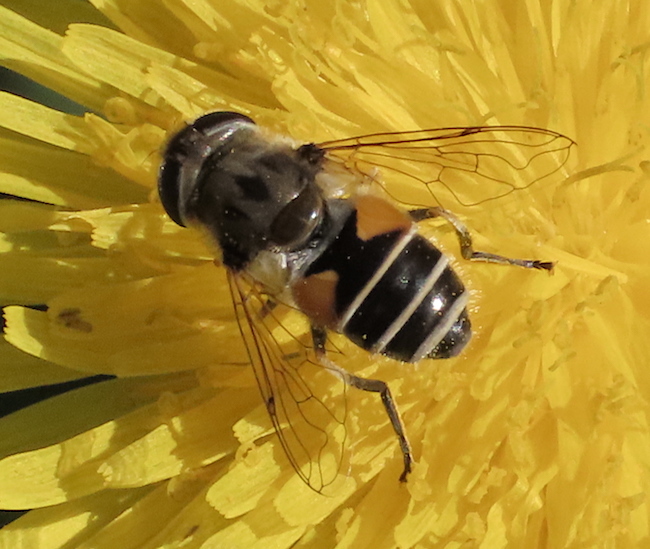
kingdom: Animalia
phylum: Arthropoda
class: Insecta
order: Diptera
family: Syrphidae
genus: Eristalis
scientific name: Eristalis arbustorum
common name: Hover fly
